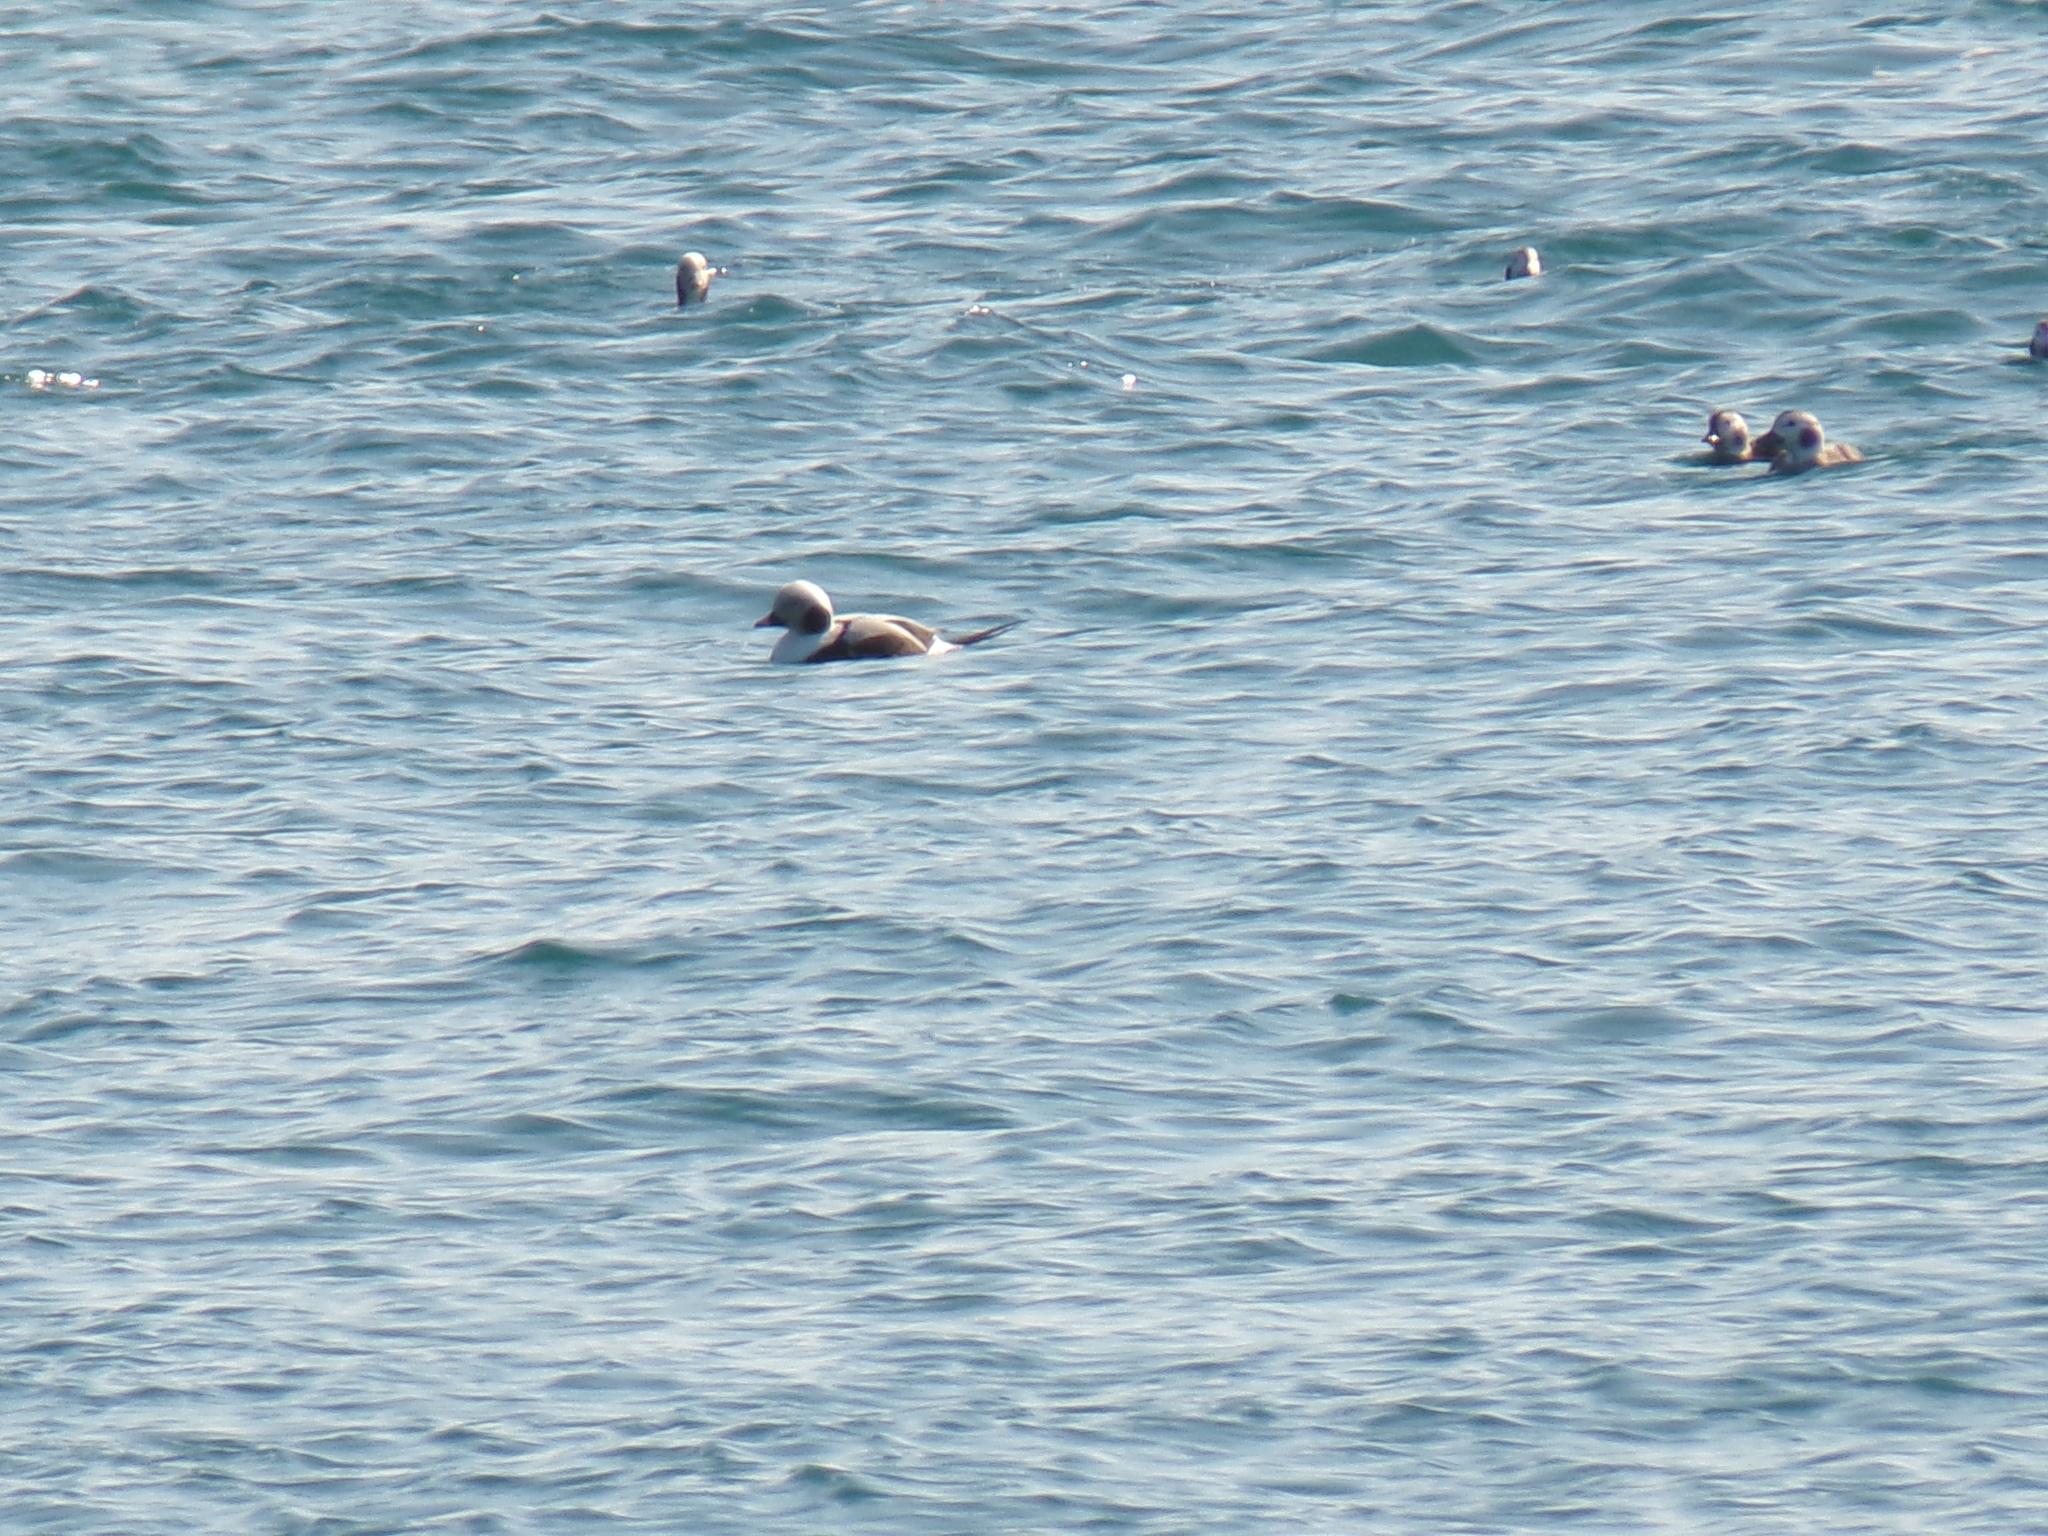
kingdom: Animalia
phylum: Chordata
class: Aves
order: Anseriformes
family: Anatidae
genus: Clangula
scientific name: Clangula hyemalis
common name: Long-tailed duck
